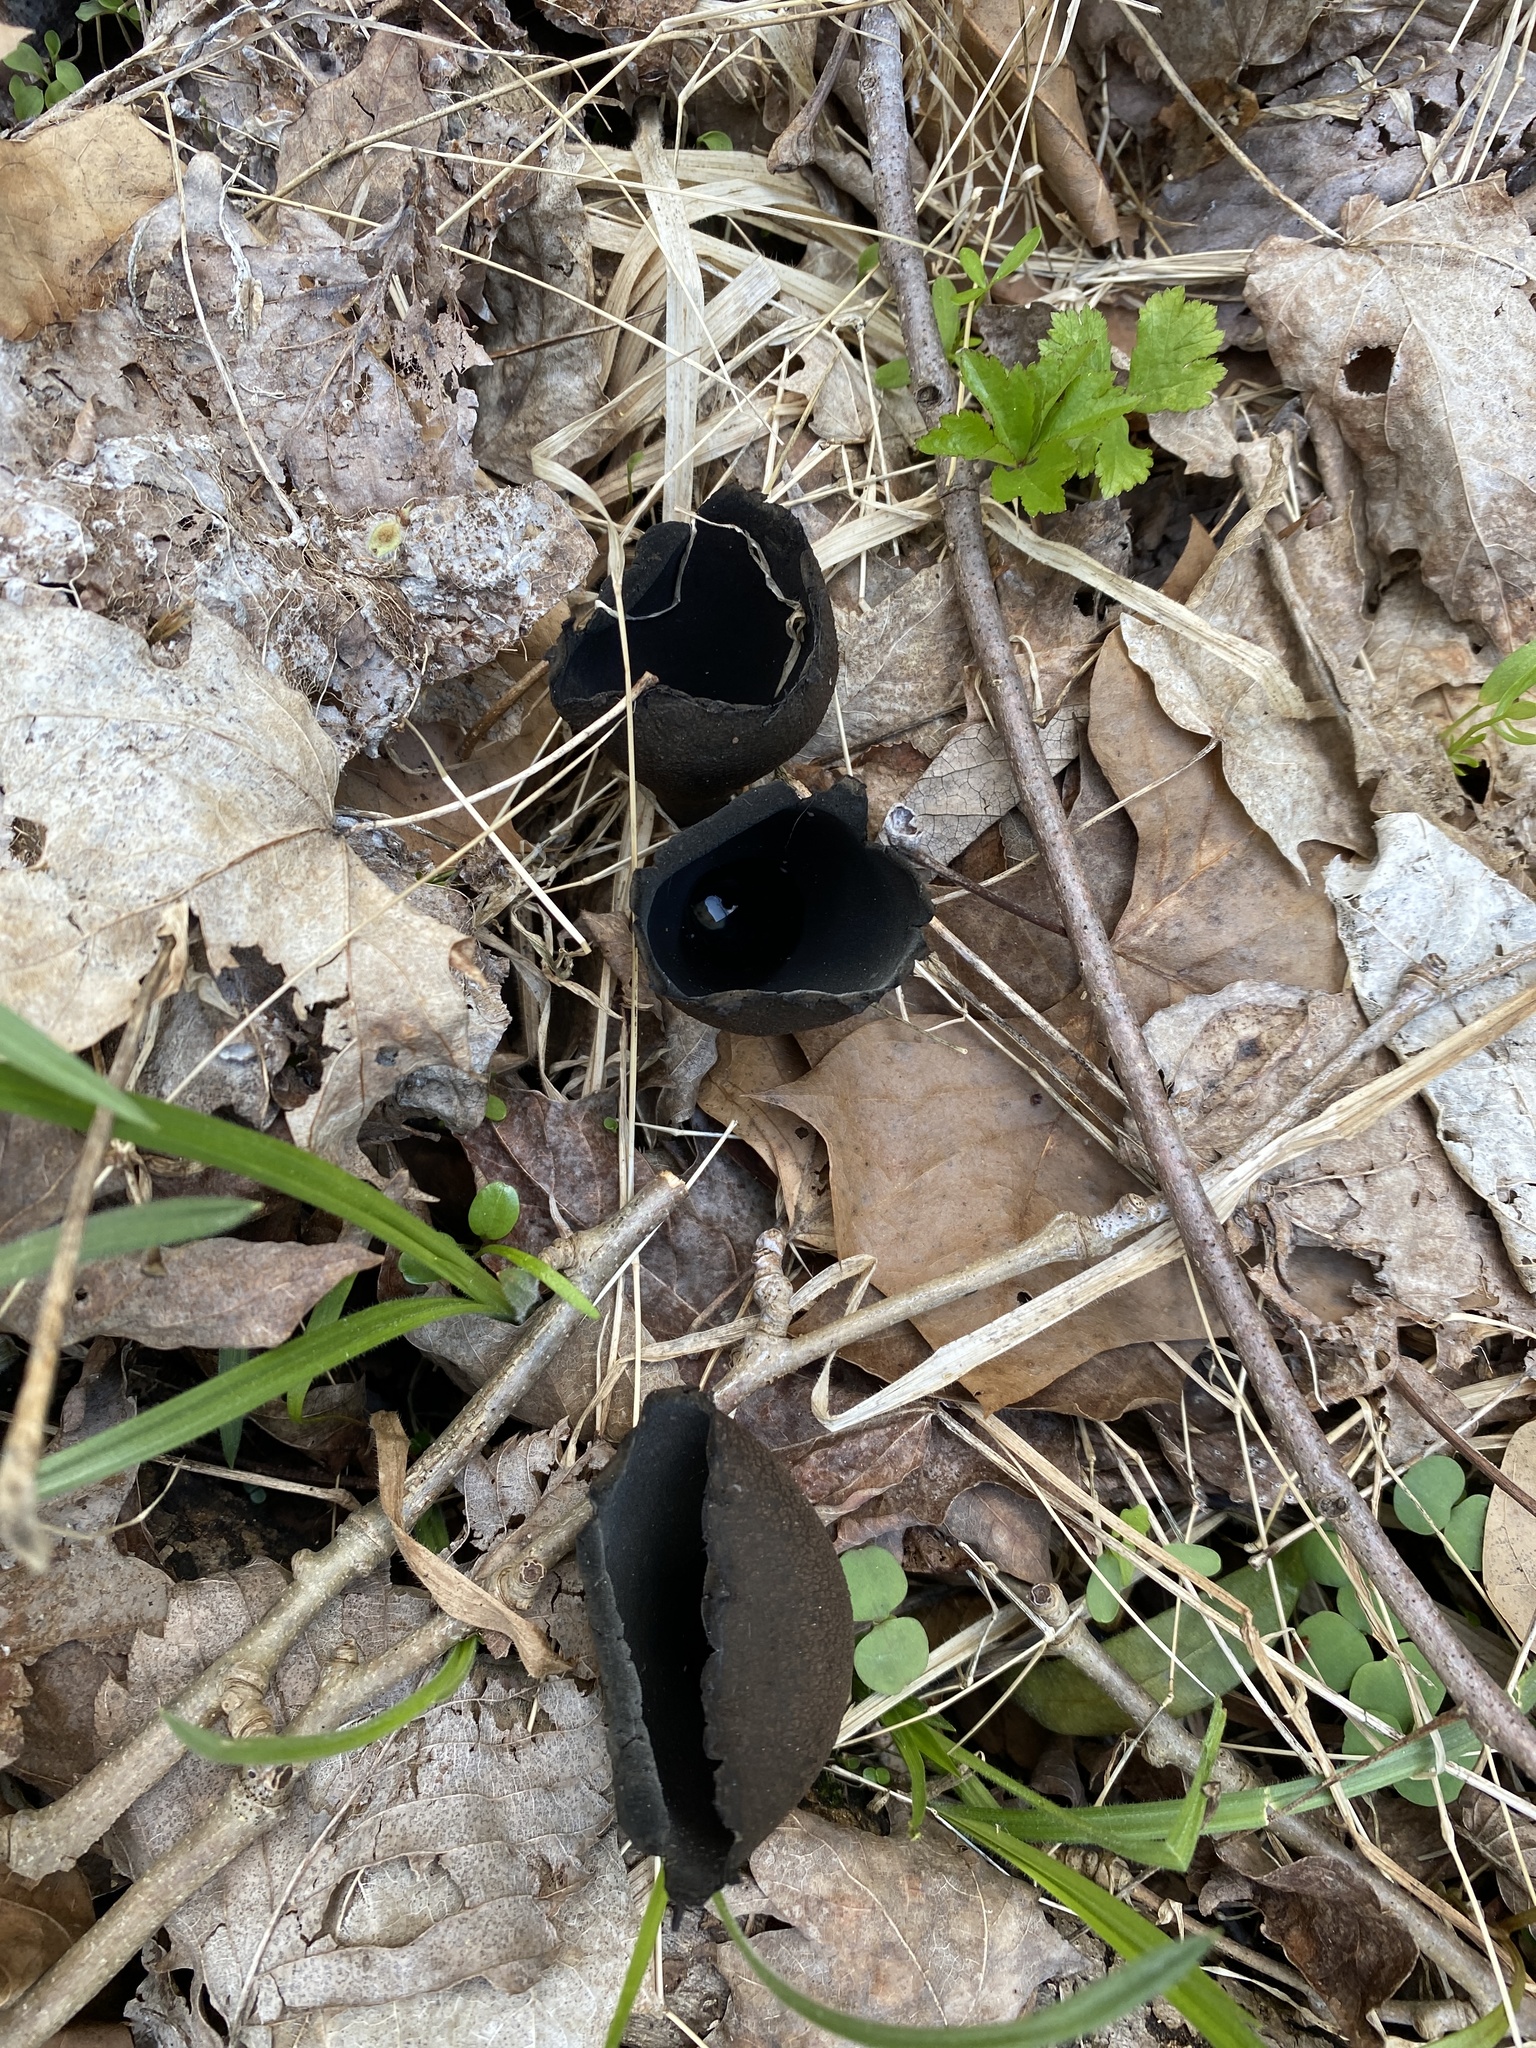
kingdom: Fungi
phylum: Ascomycota
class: Pezizomycetes
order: Pezizales
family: Sarcosomataceae
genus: Urnula
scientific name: Urnula craterium
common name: Devil's urn
